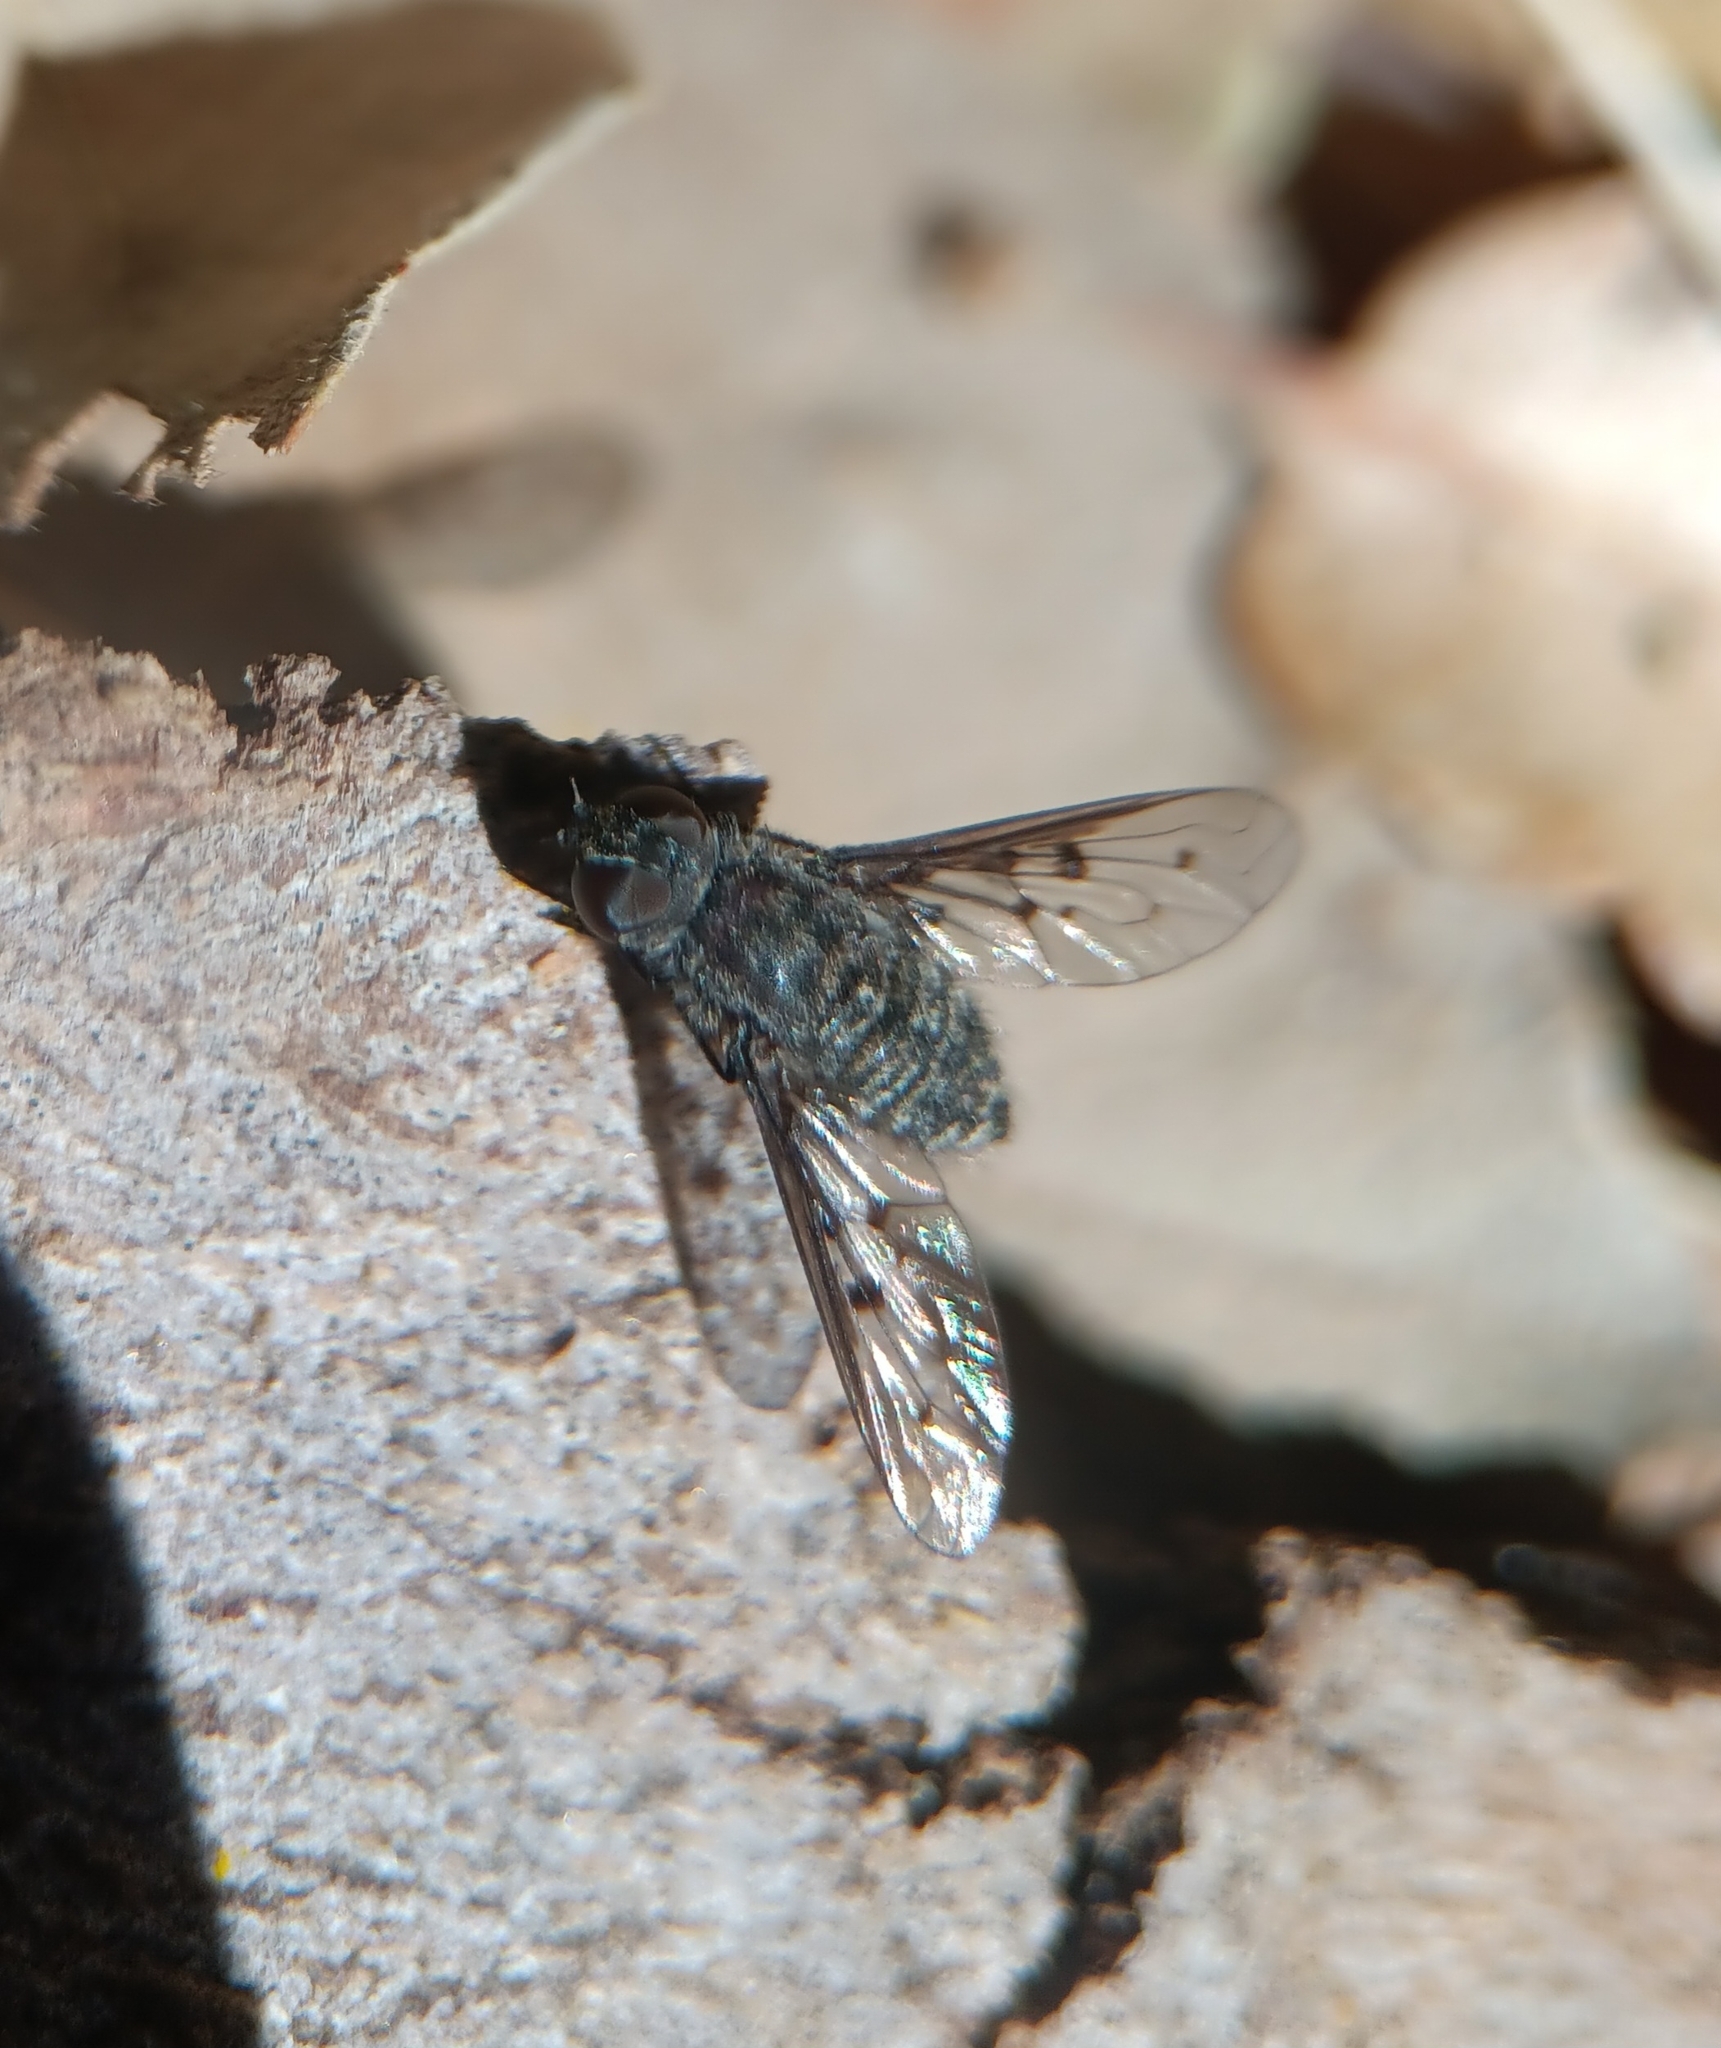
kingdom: Animalia
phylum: Arthropoda
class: Insecta
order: Diptera
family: Bombyliidae
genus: Anthrax
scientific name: Anthrax daphne
